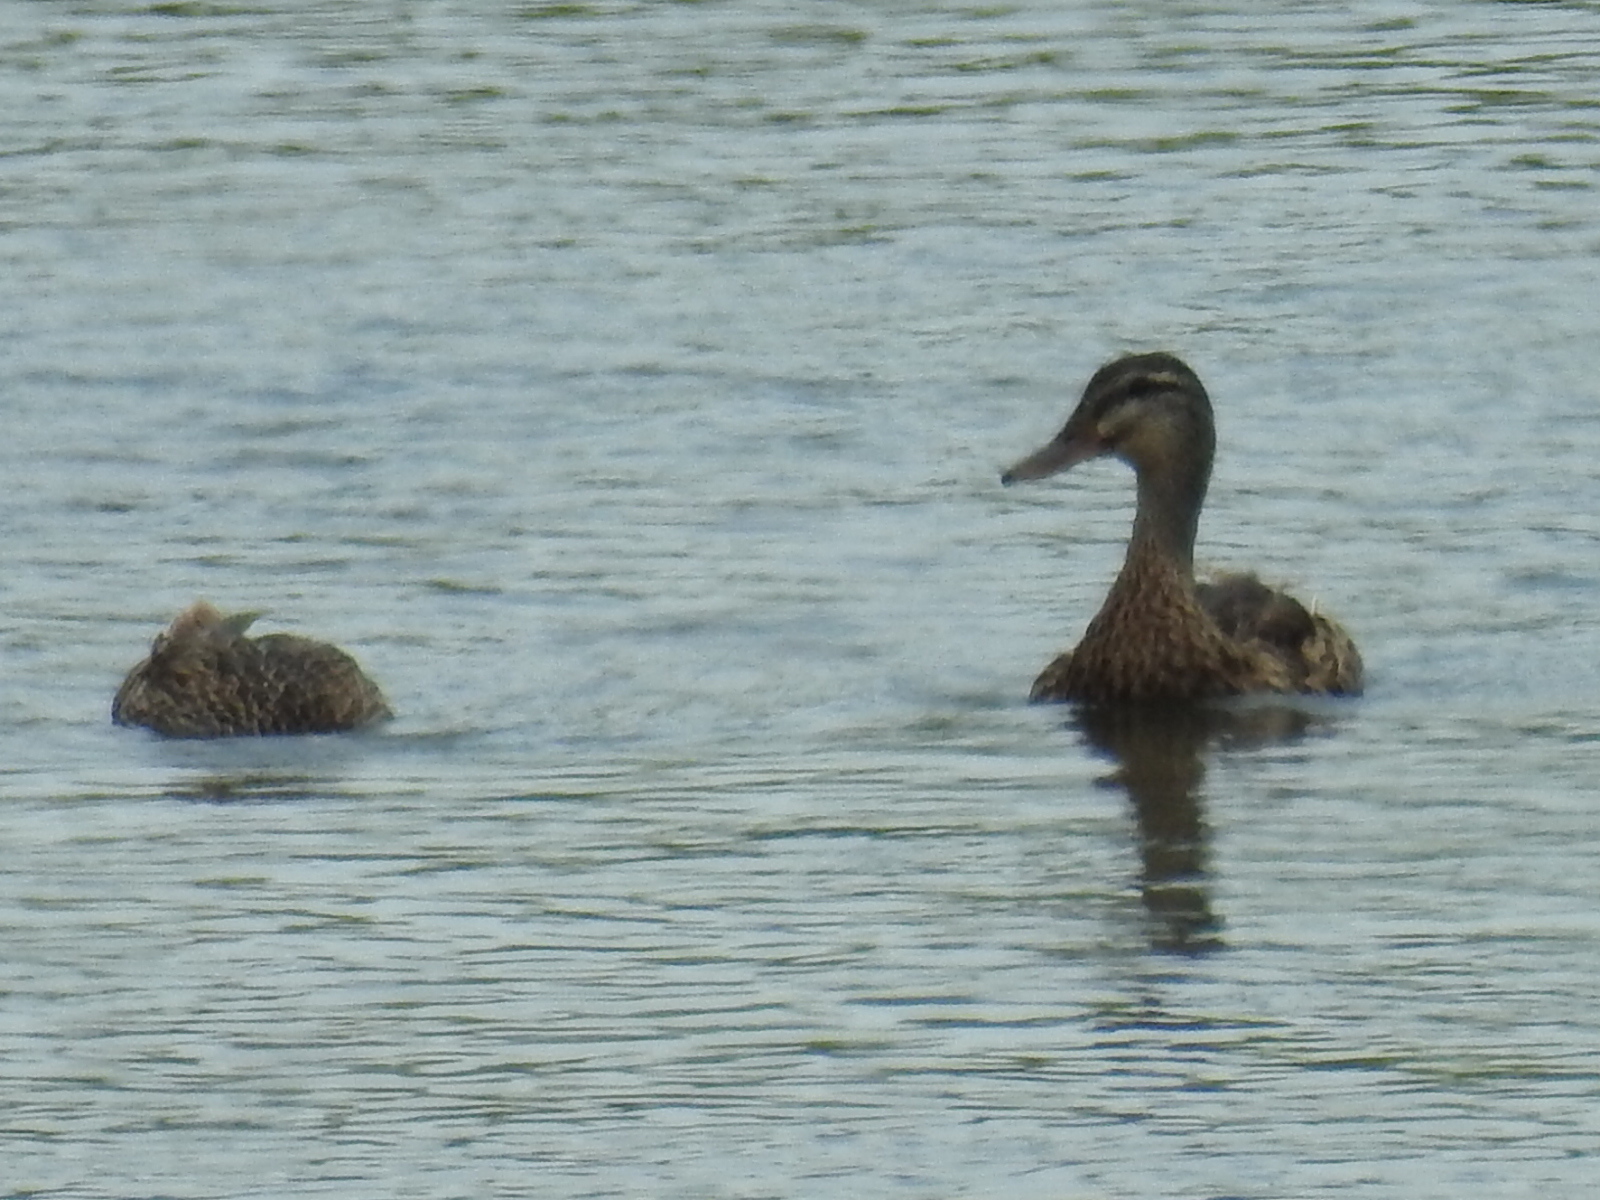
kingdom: Animalia
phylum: Chordata
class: Aves
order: Anseriformes
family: Anatidae
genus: Anas
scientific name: Anas platyrhynchos
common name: Mallard
